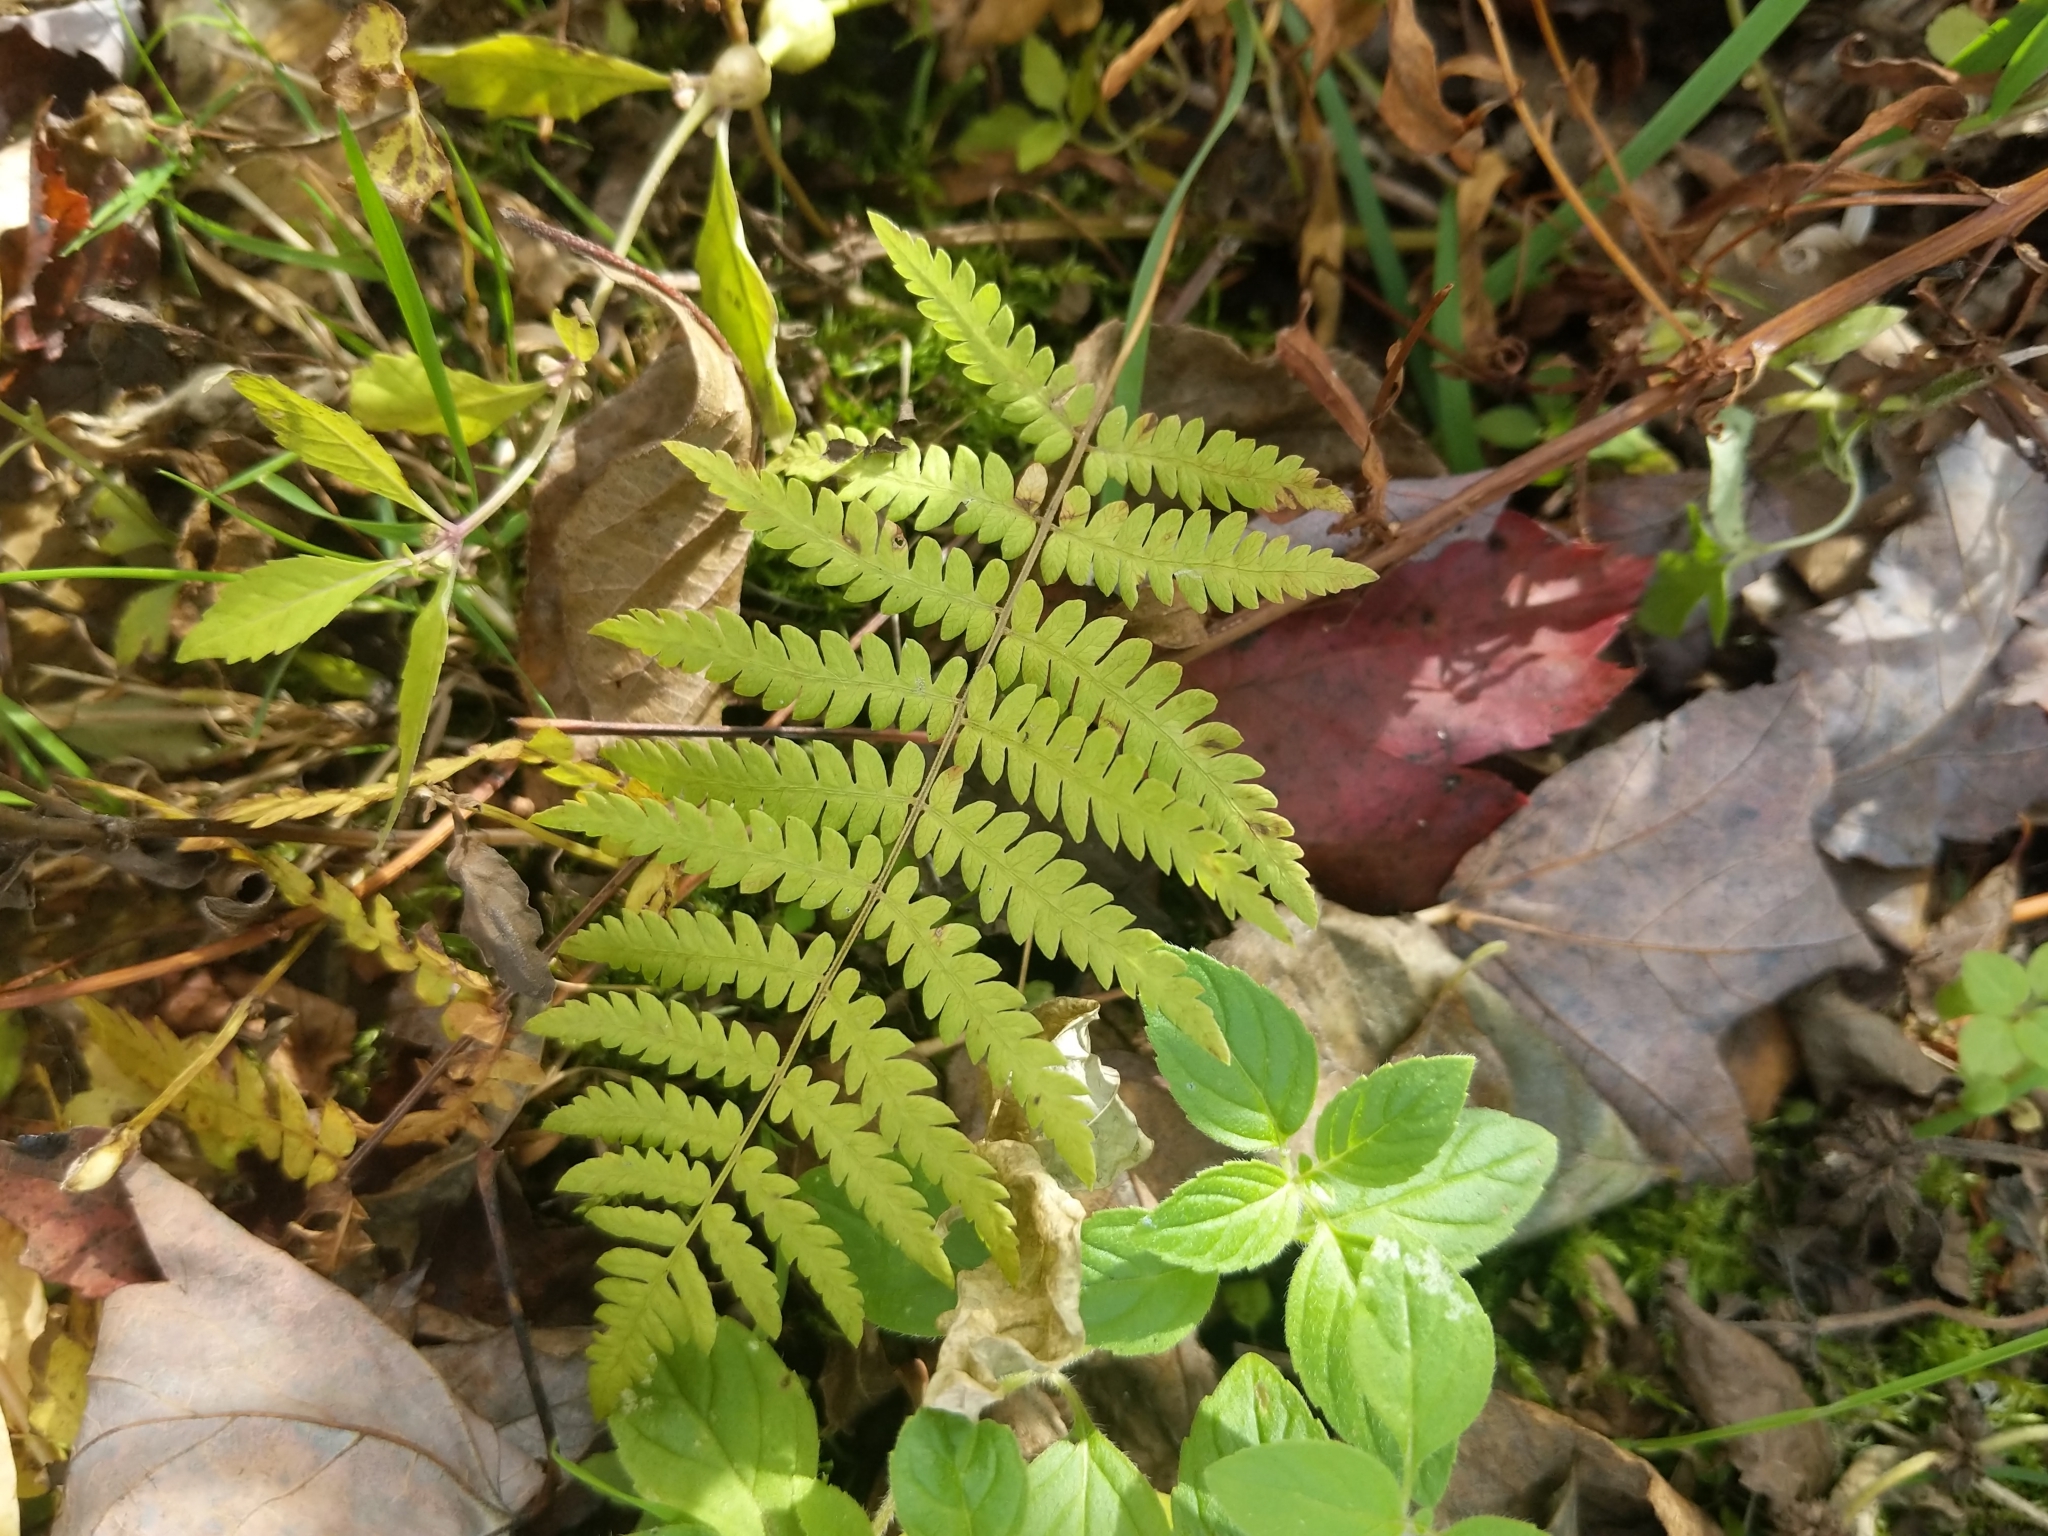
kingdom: Plantae
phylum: Tracheophyta
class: Polypodiopsida
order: Polypodiales
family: Thelypteridaceae
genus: Thelypteris
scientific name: Thelypteris palustris
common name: Marsh fern
